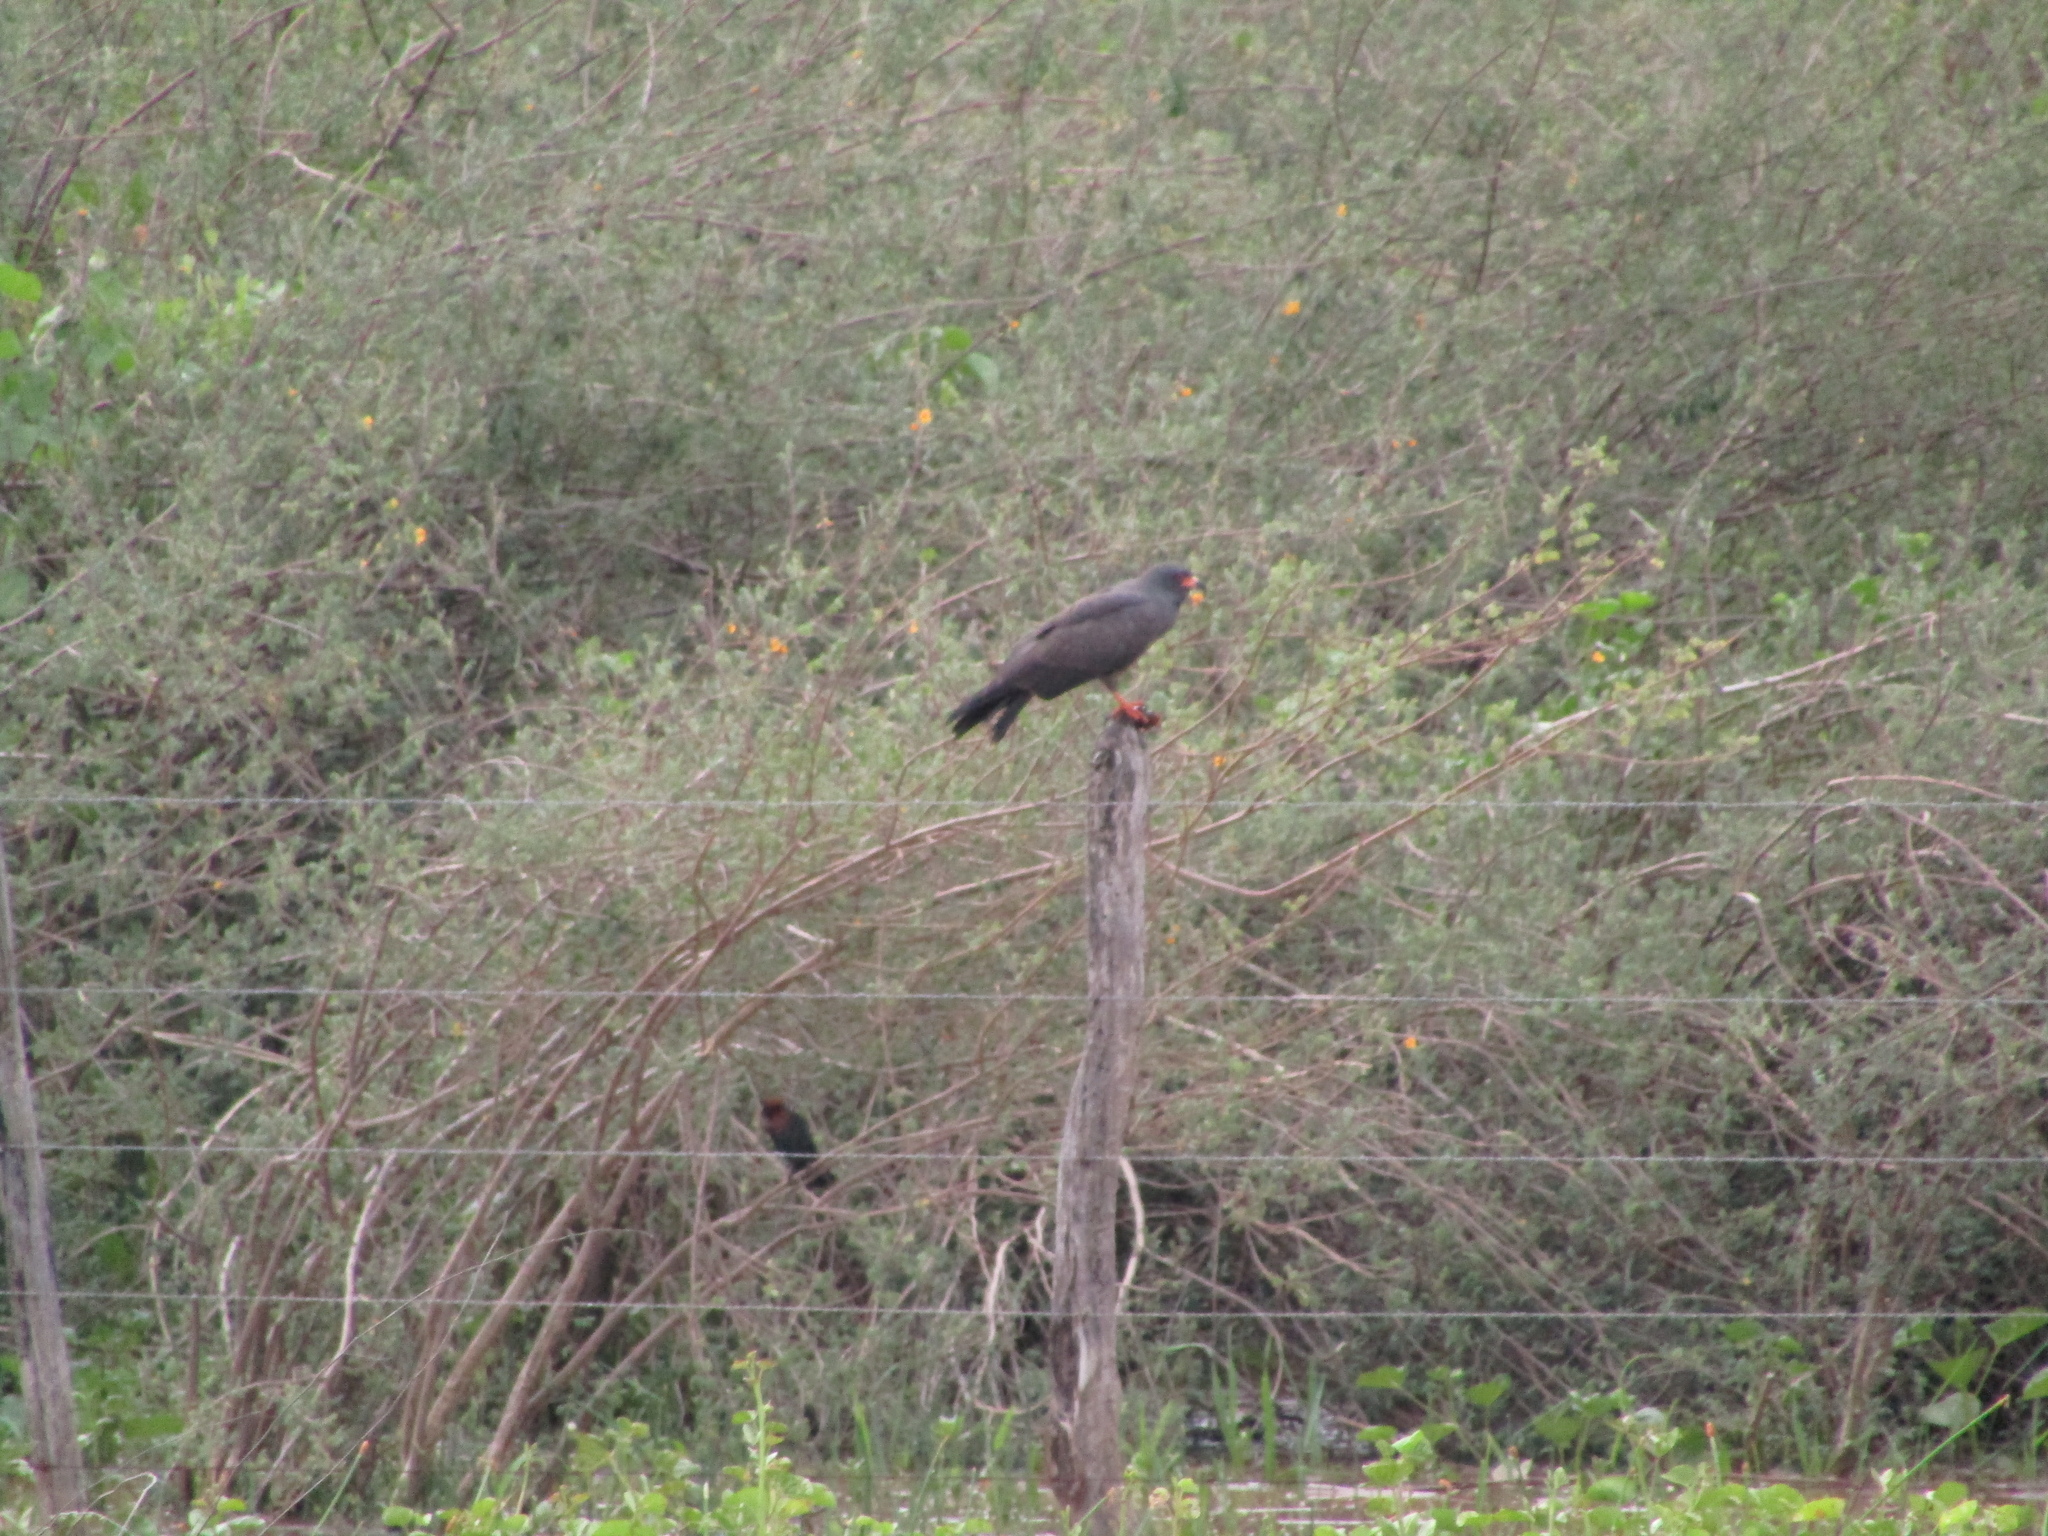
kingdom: Animalia
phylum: Chordata
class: Aves
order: Accipitriformes
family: Accipitridae
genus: Rostrhamus
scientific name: Rostrhamus sociabilis
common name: Snail kite
